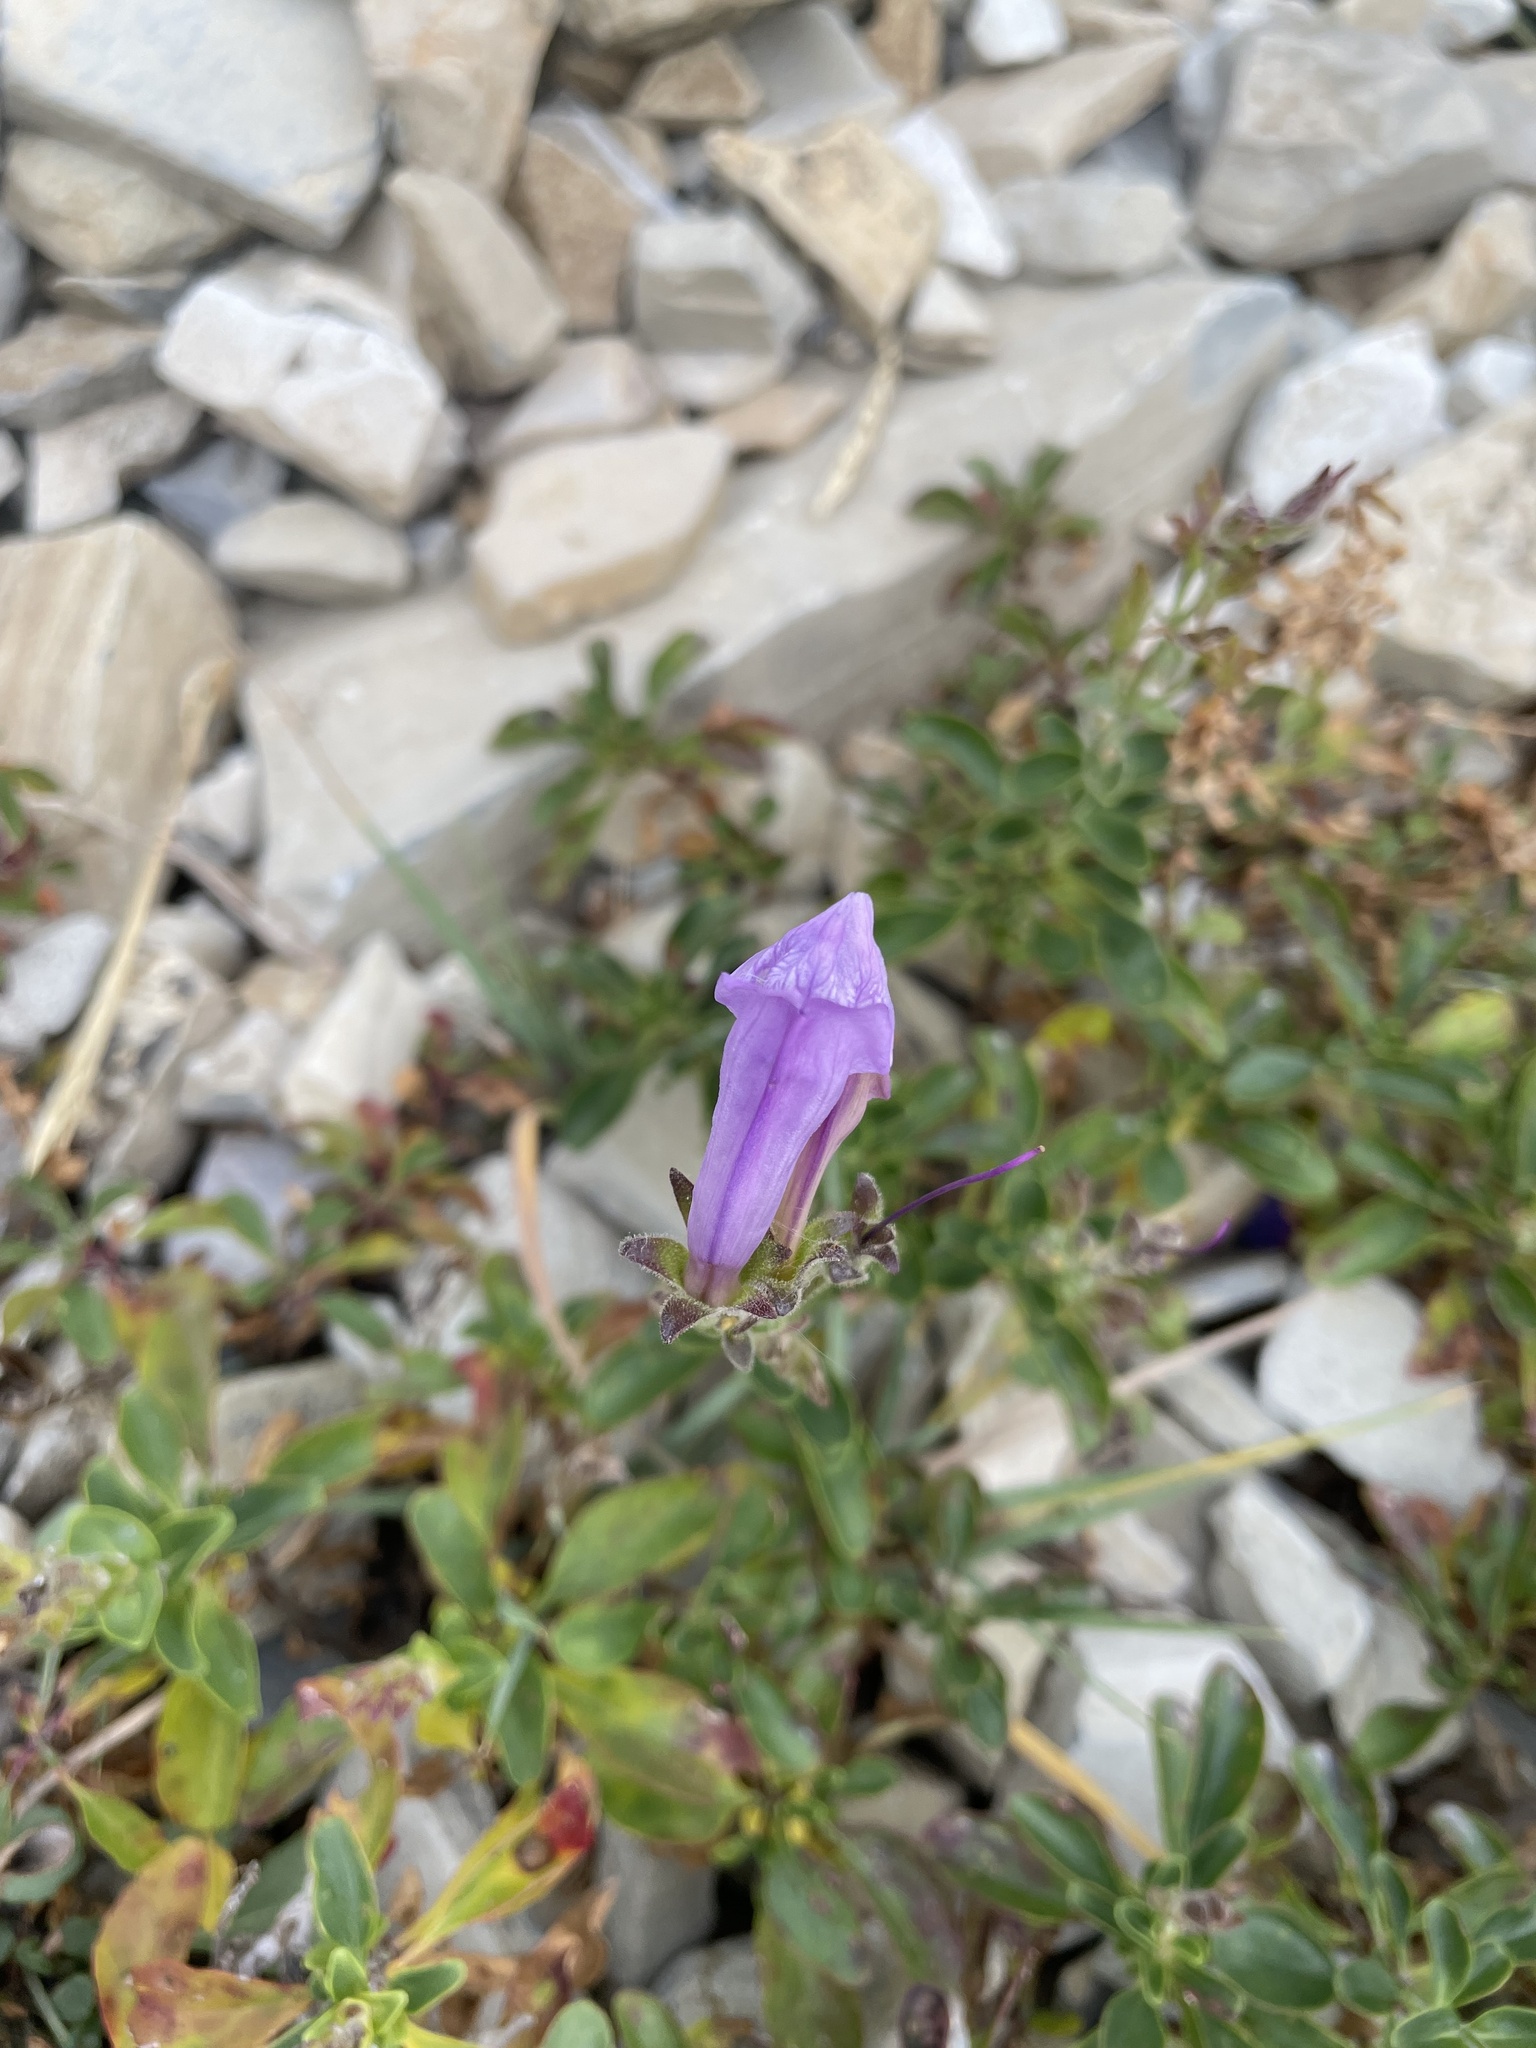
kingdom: Plantae
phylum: Tracheophyta
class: Magnoliopsida
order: Lamiales
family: Plantaginaceae
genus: Penstemon
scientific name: Penstemon ellipticus
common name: Alpine beardtongue
